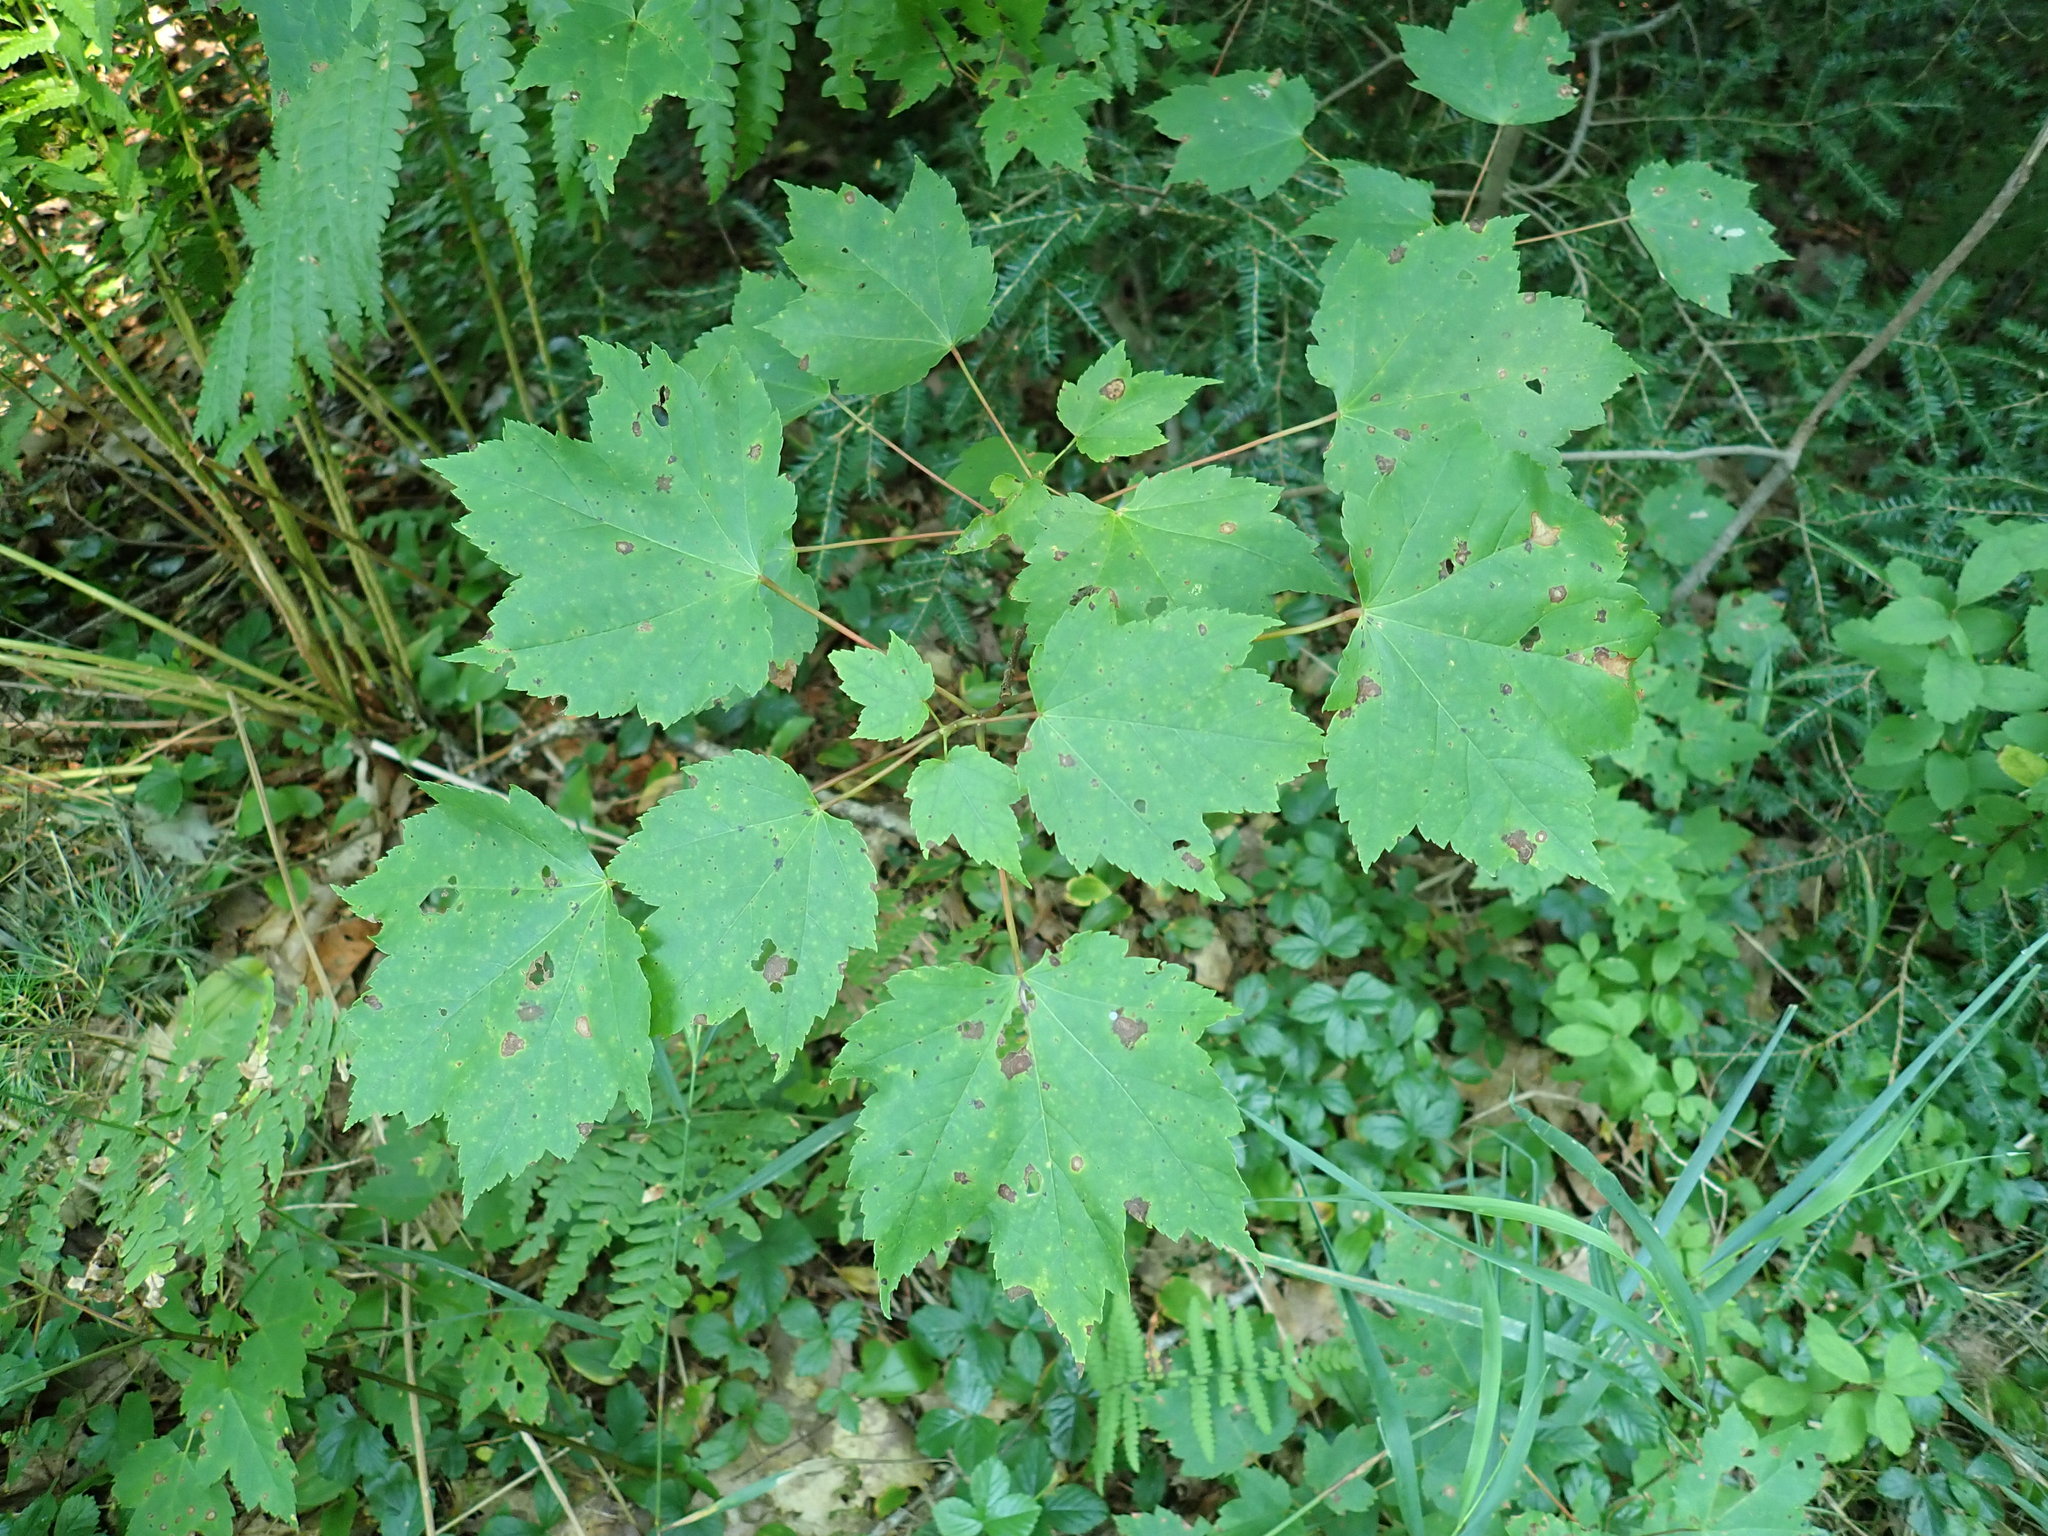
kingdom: Plantae
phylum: Tracheophyta
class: Magnoliopsida
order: Sapindales
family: Sapindaceae
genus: Acer
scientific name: Acer rubrum
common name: Red maple
